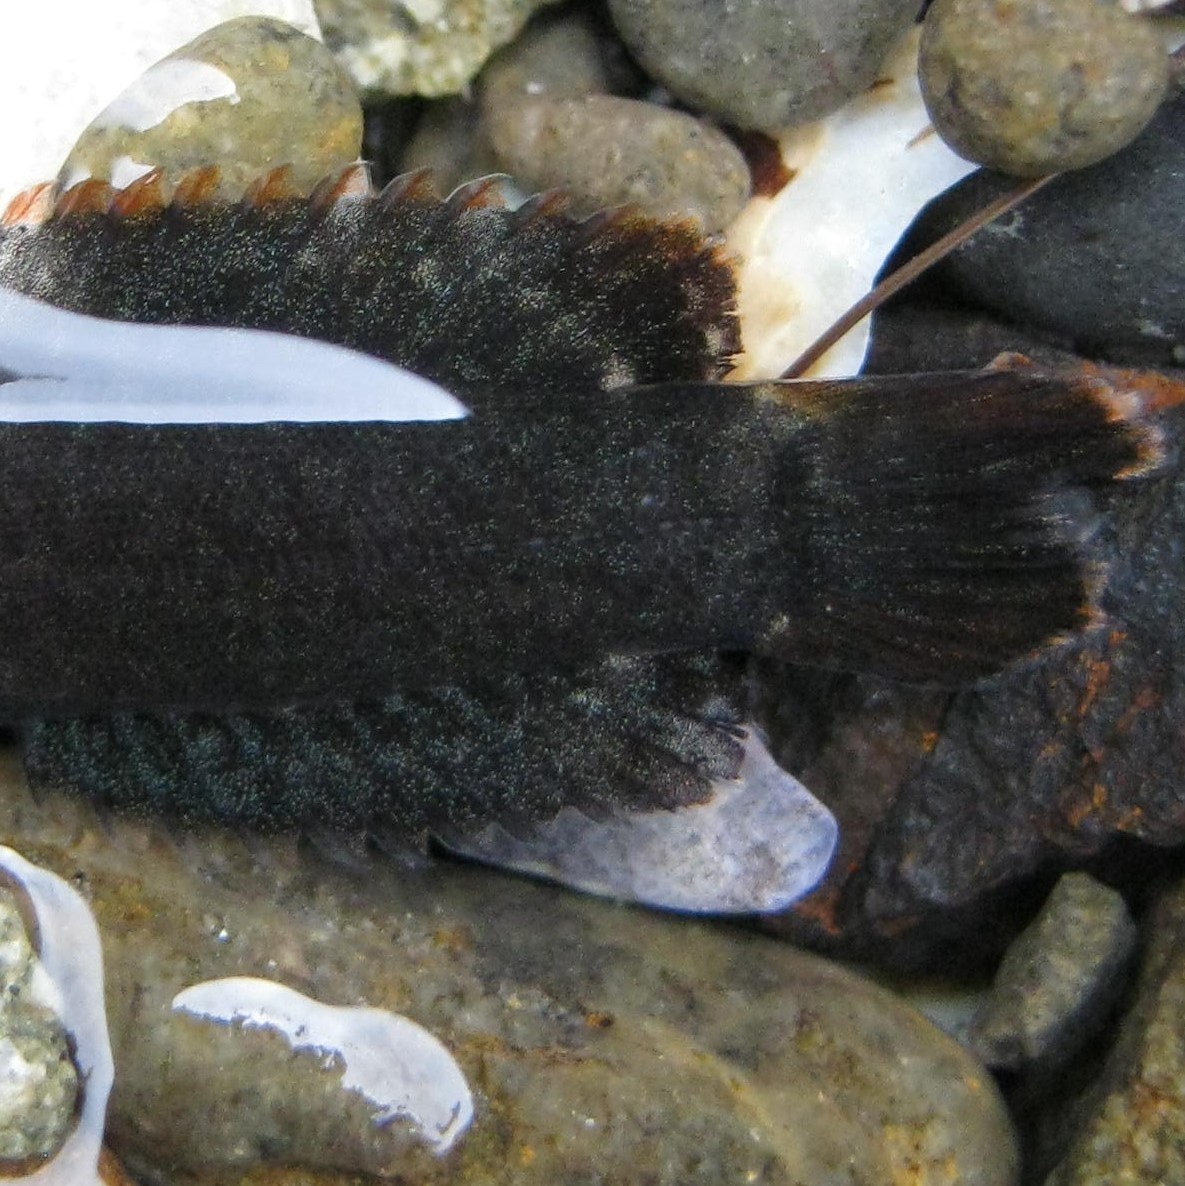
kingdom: Animalia
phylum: Chordata
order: Perciformes
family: Plesiopidae
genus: Acanthoclinus
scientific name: Acanthoclinus fuscus
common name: Olive rockfish
